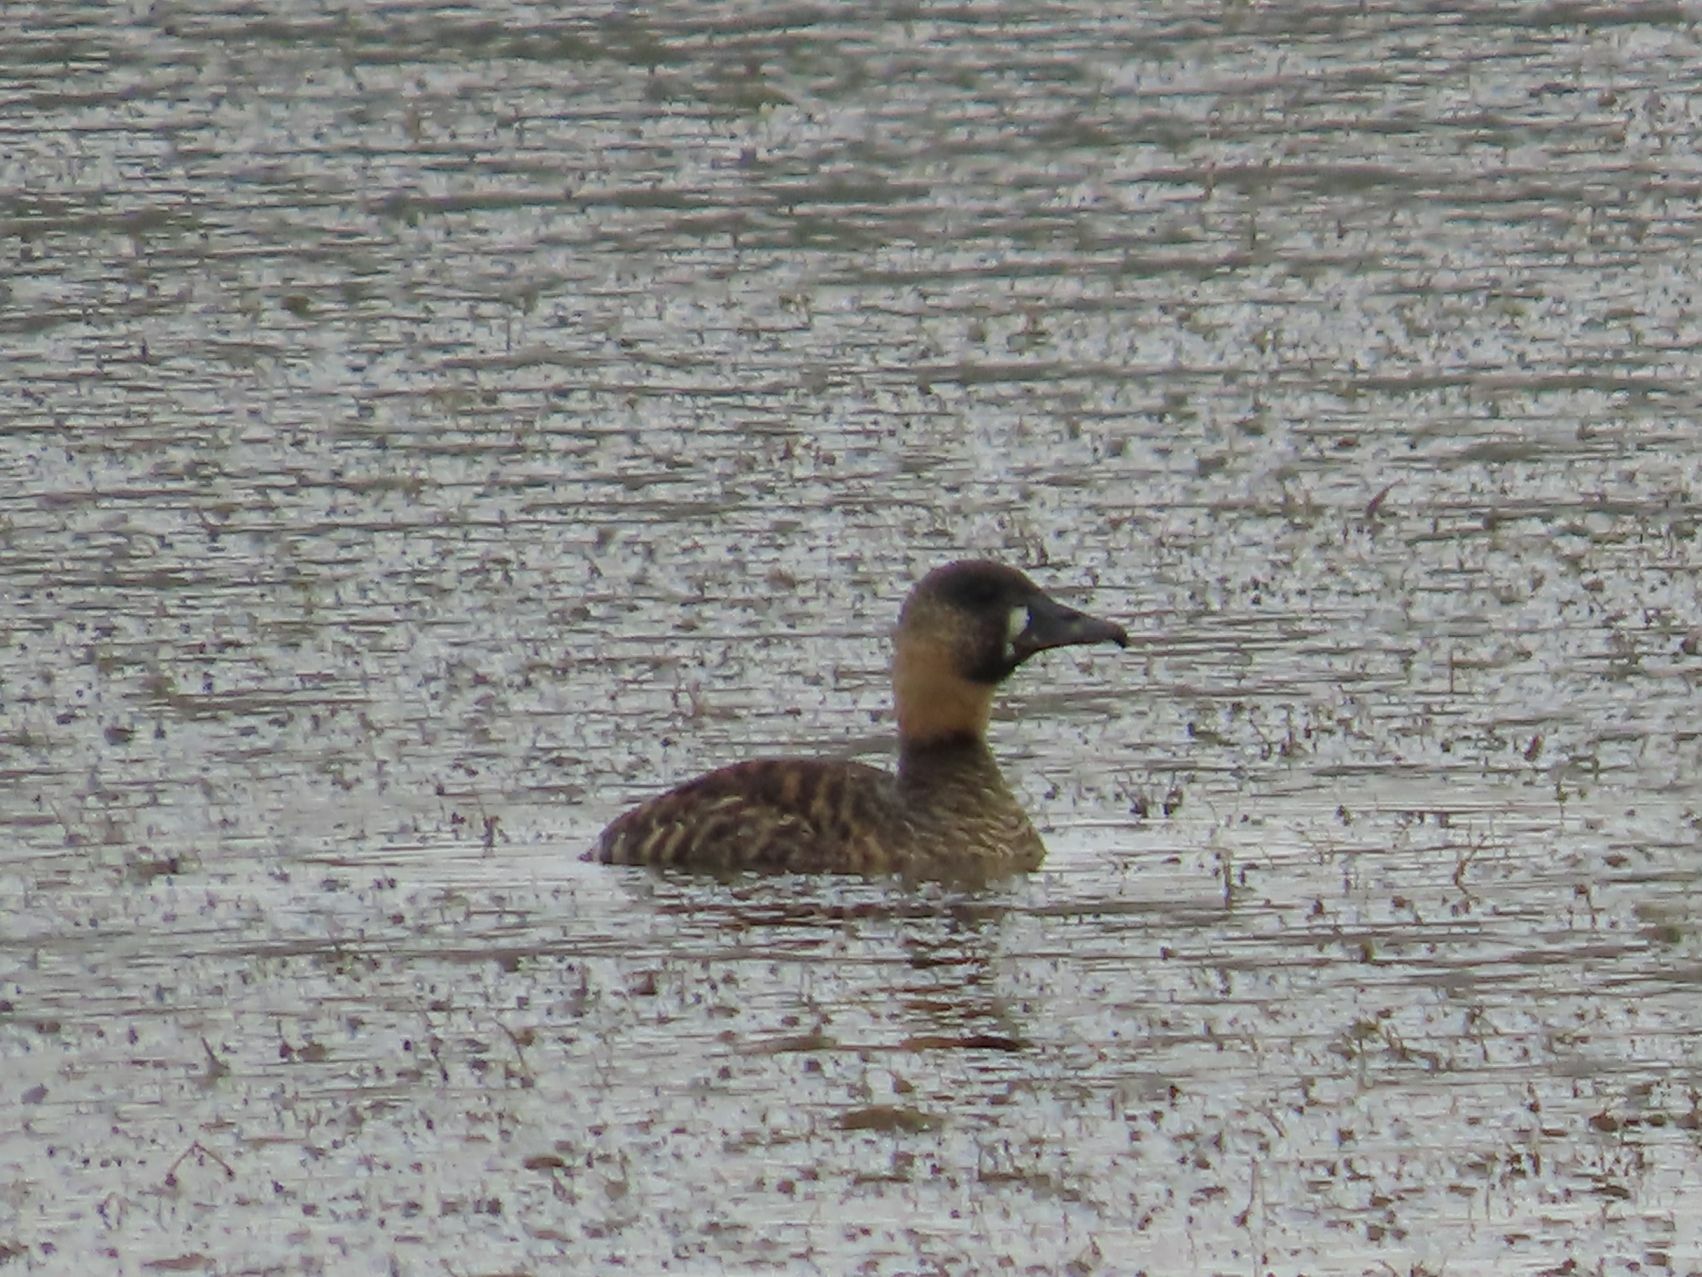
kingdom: Animalia
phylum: Chordata
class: Aves
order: Anseriformes
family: Anatidae
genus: Thalassornis
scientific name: Thalassornis leuconotus
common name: White-backed duck
